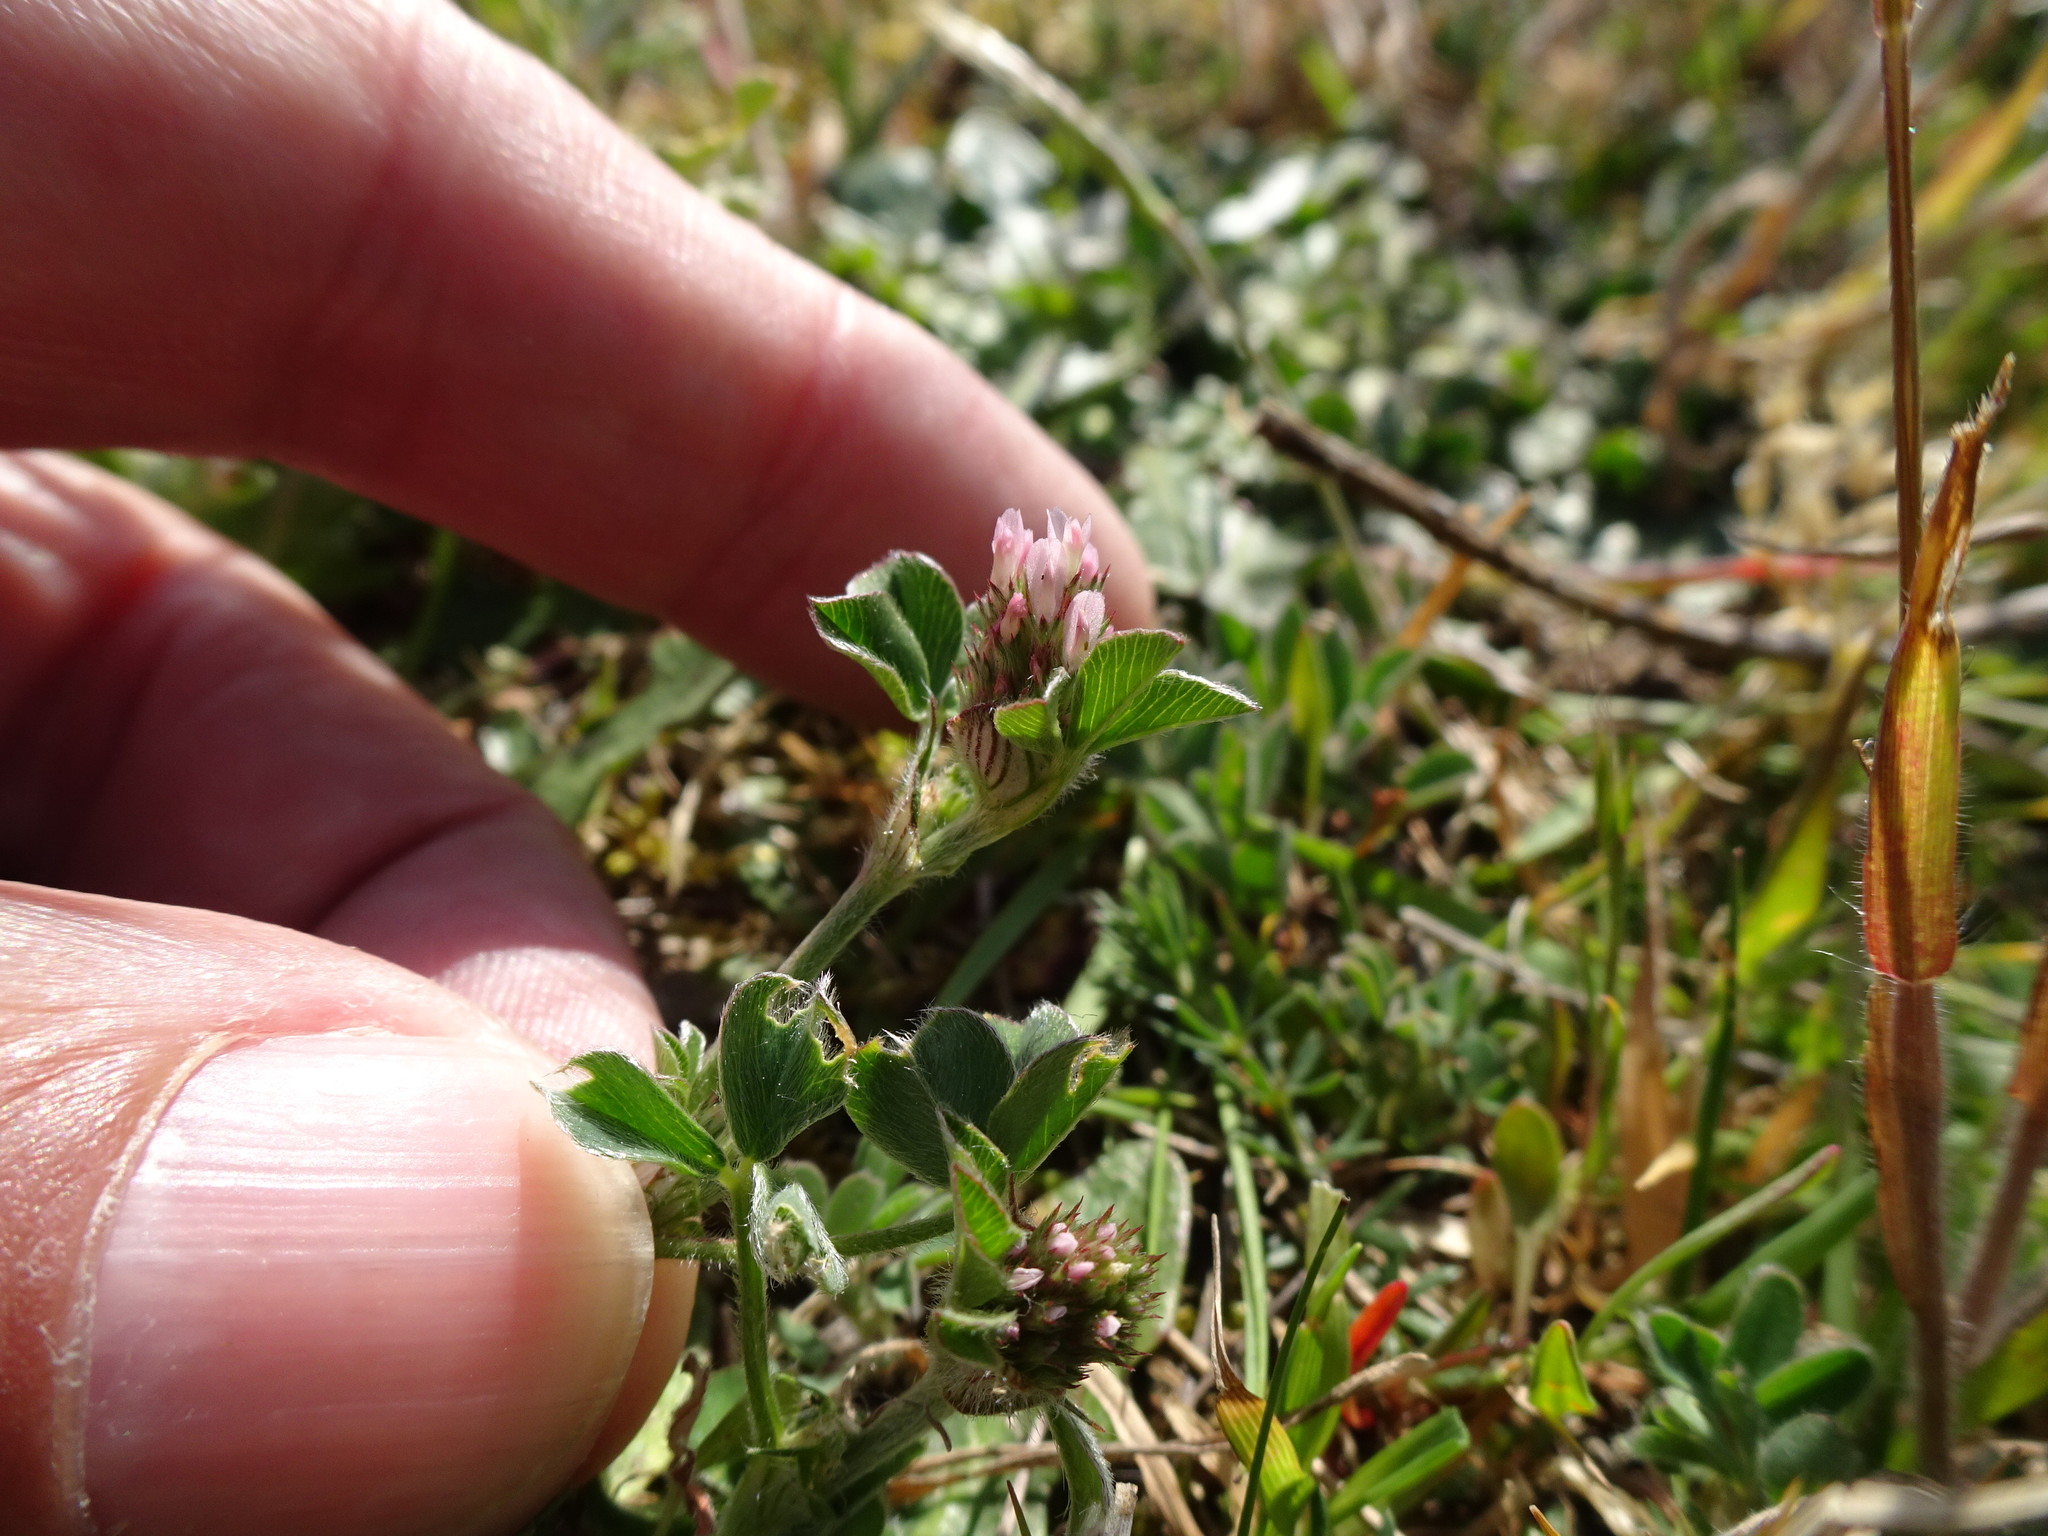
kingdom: Plantae
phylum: Tracheophyta
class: Magnoliopsida
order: Fabales
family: Fabaceae
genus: Trifolium
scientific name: Trifolium striatum
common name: Knotted clover
